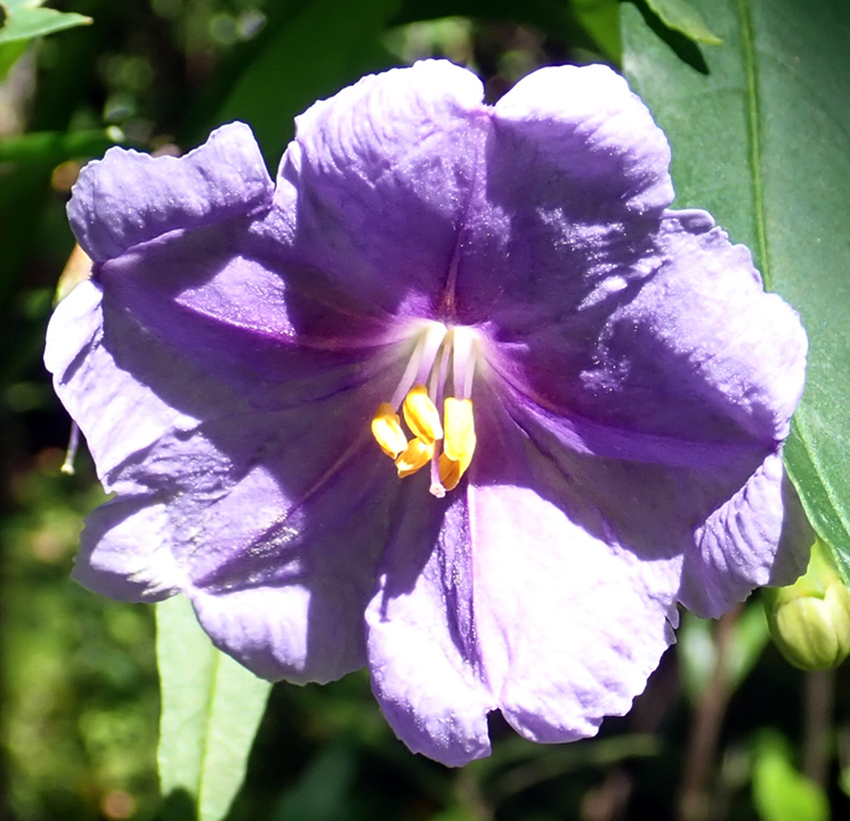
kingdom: Plantae
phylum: Tracheophyta
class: Magnoliopsida
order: Solanales
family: Solanaceae
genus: Solanum
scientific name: Solanum laciniatum
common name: Kangaroo-apple
